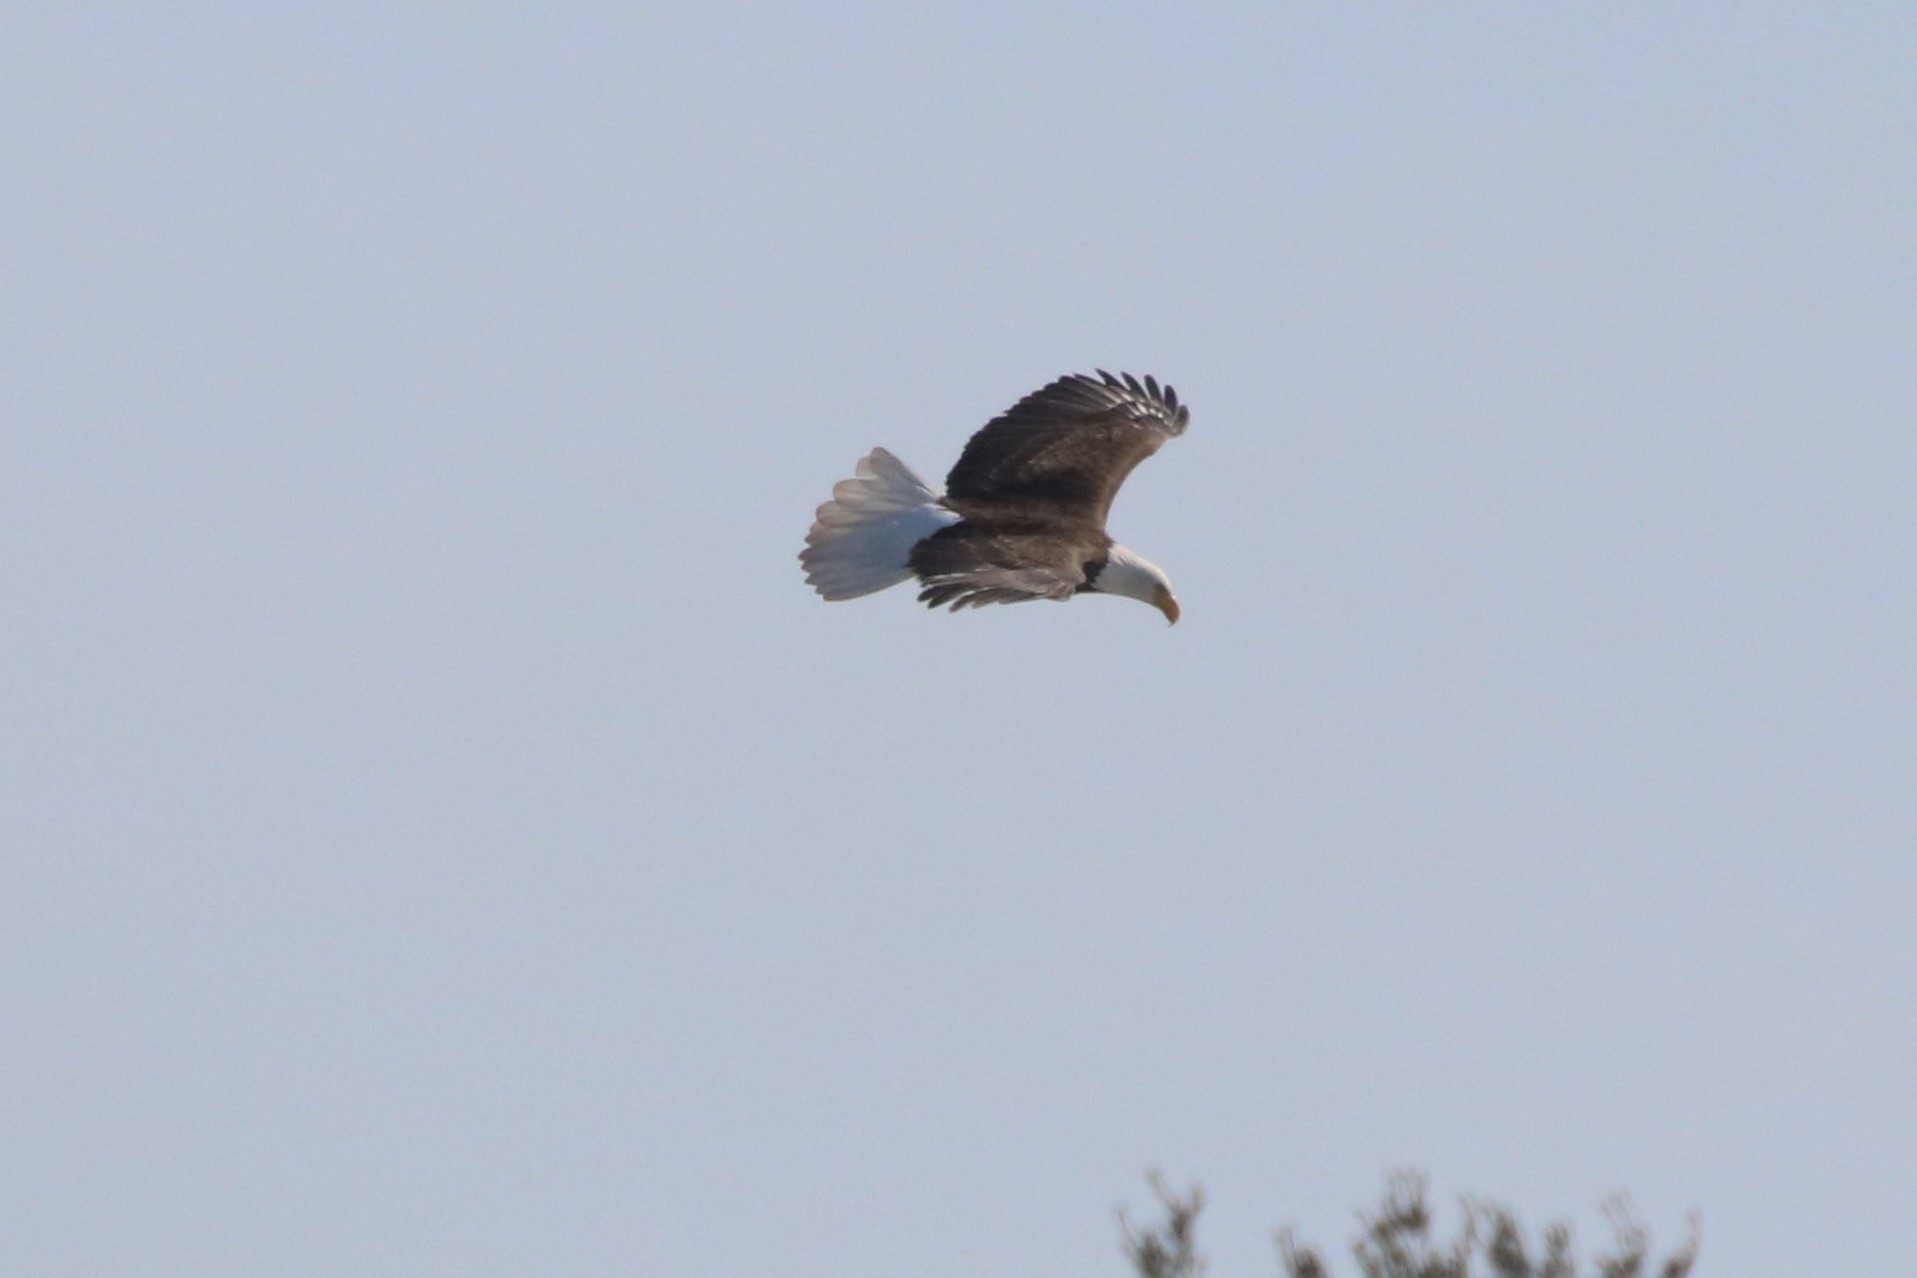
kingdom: Animalia
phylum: Chordata
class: Aves
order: Accipitriformes
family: Accipitridae
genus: Haliaeetus
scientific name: Haliaeetus leucocephalus
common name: Bald eagle
